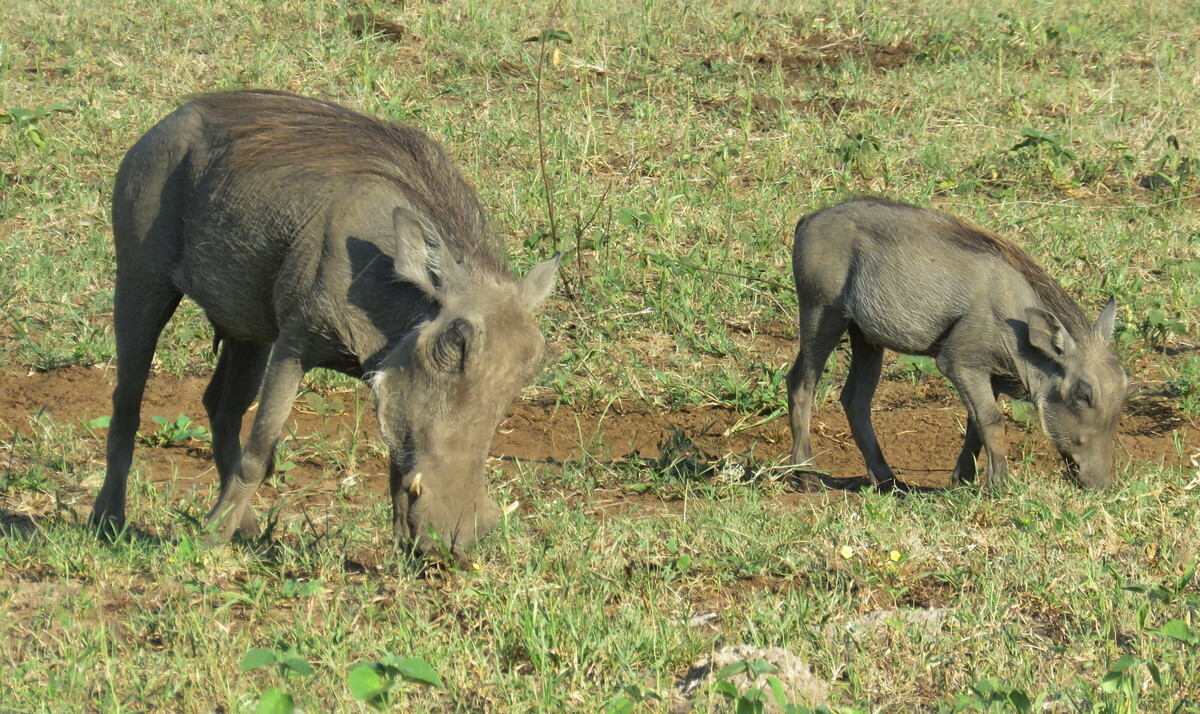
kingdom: Animalia
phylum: Chordata
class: Mammalia
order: Artiodactyla
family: Suidae
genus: Phacochoerus
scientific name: Phacochoerus africanus
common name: Common warthog
